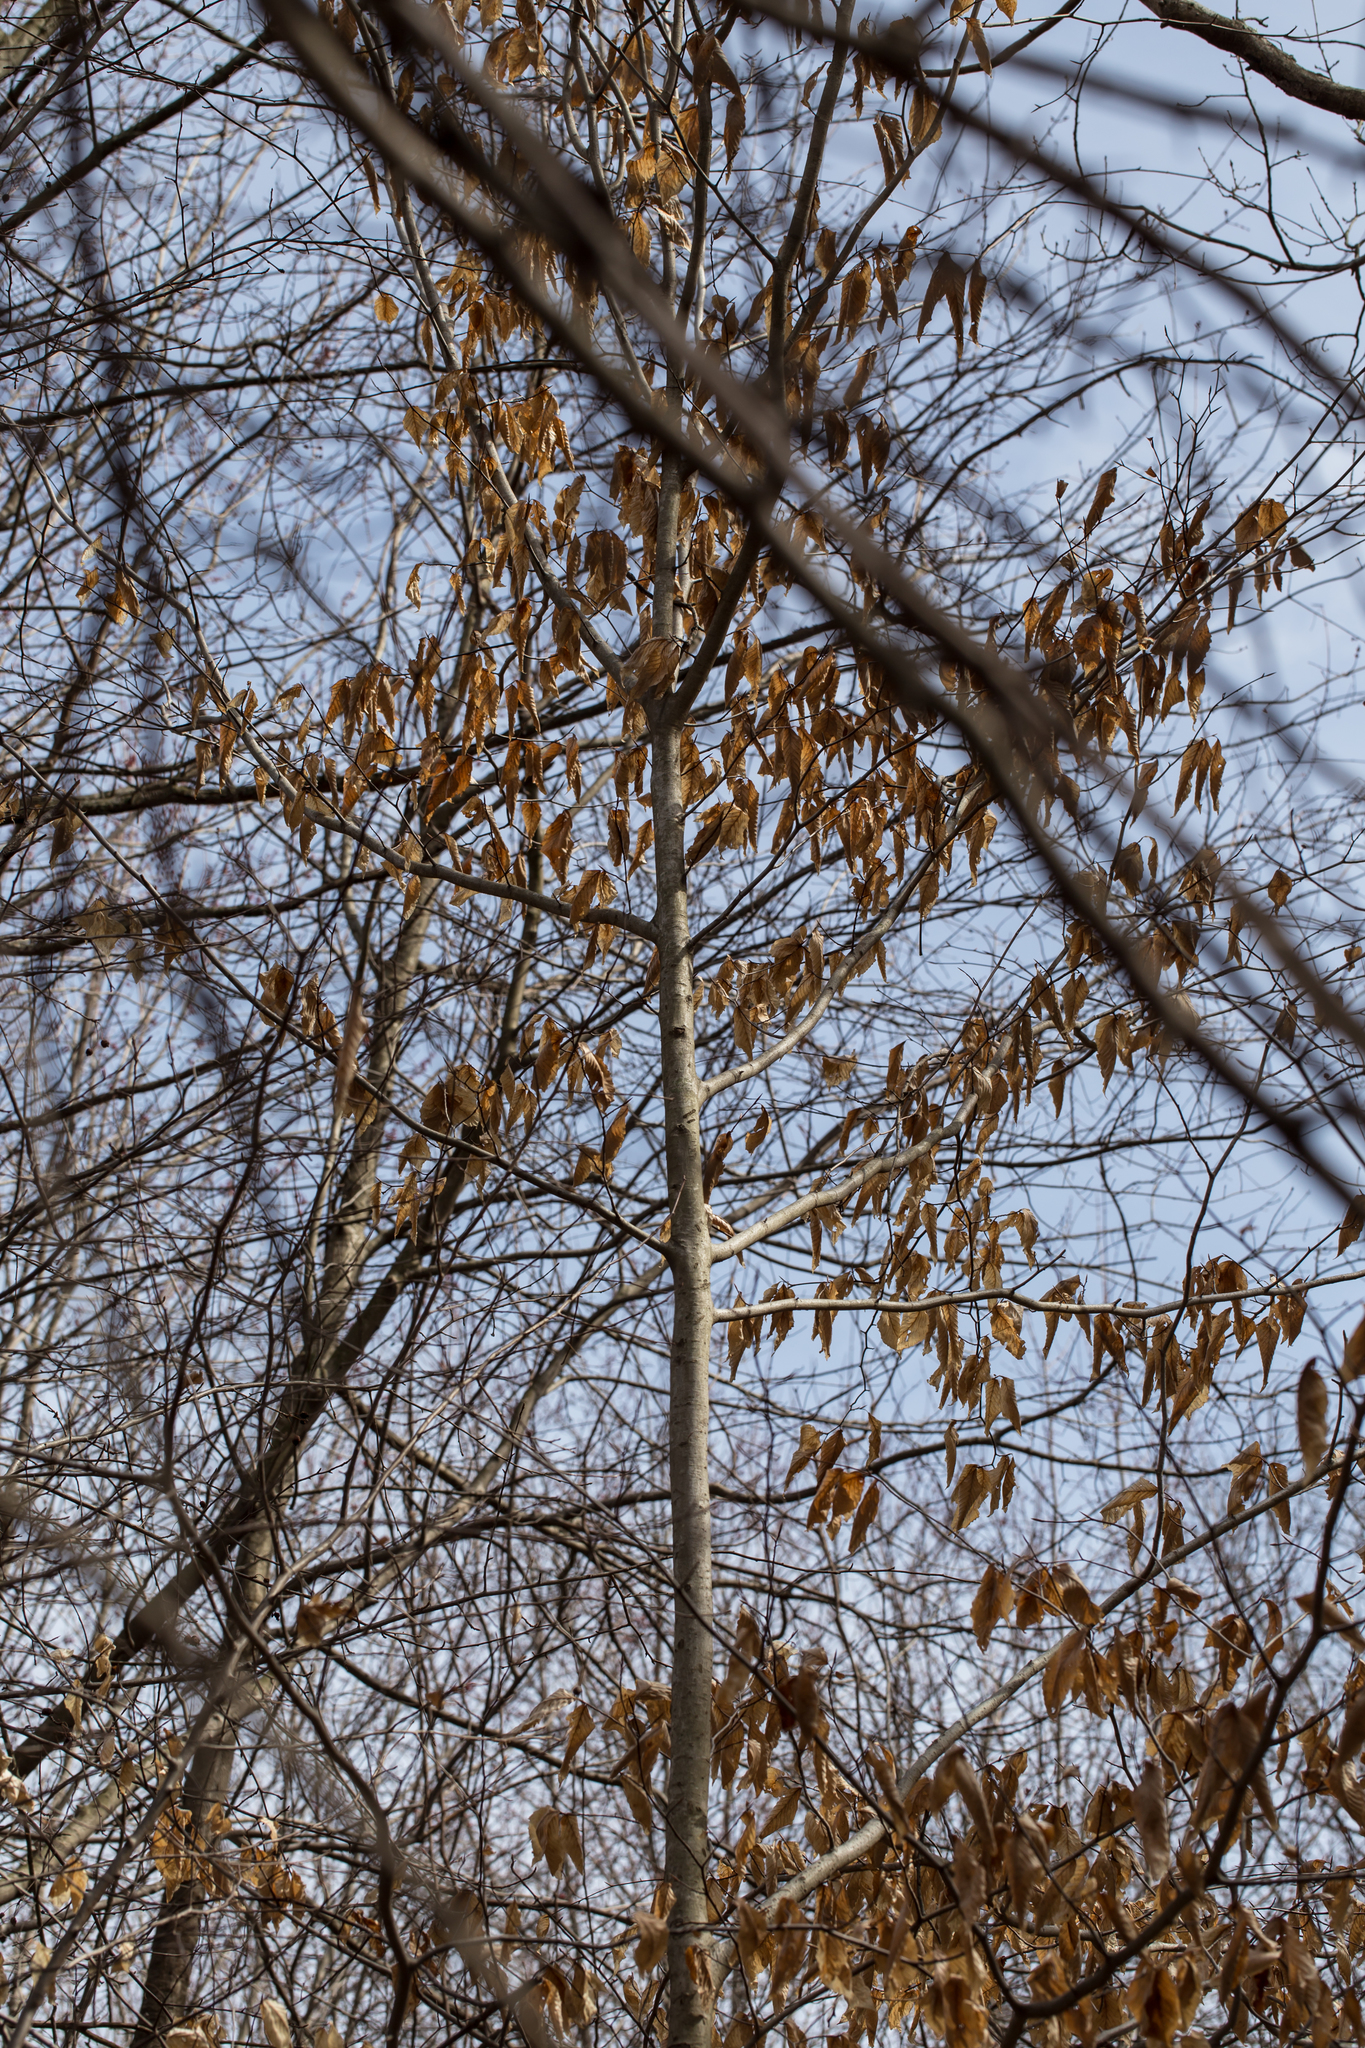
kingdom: Plantae
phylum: Tracheophyta
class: Magnoliopsida
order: Fagales
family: Fagaceae
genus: Fagus
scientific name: Fagus grandifolia
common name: American beech
